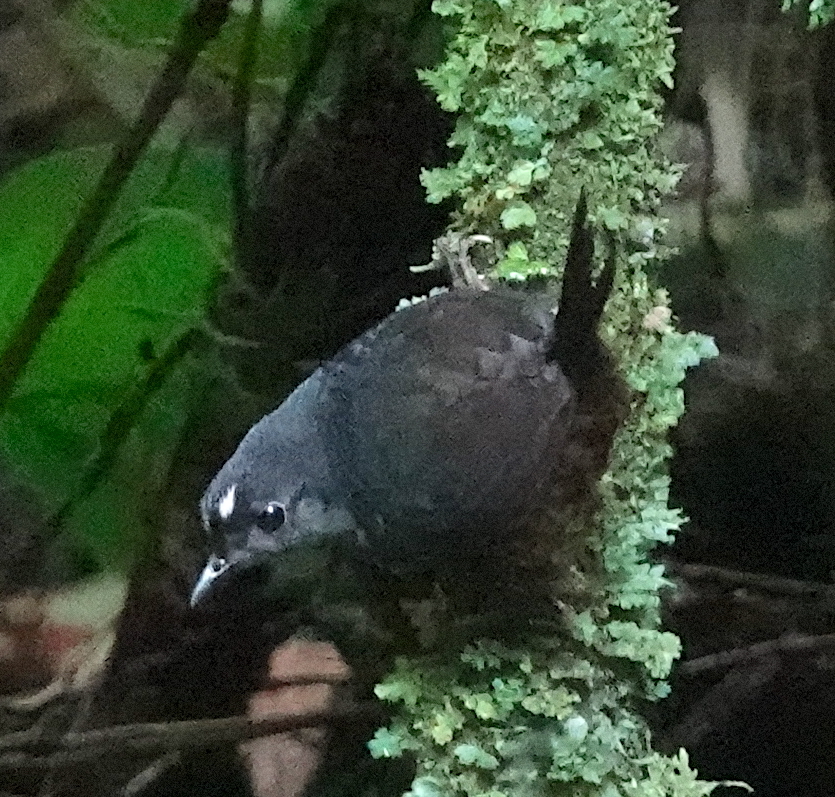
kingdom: Animalia
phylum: Chordata
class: Aves
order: Passeriformes
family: Rhinocryptidae
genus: Scytalopus
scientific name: Scytalopus atratus
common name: Northern white-crowned tapaculo
